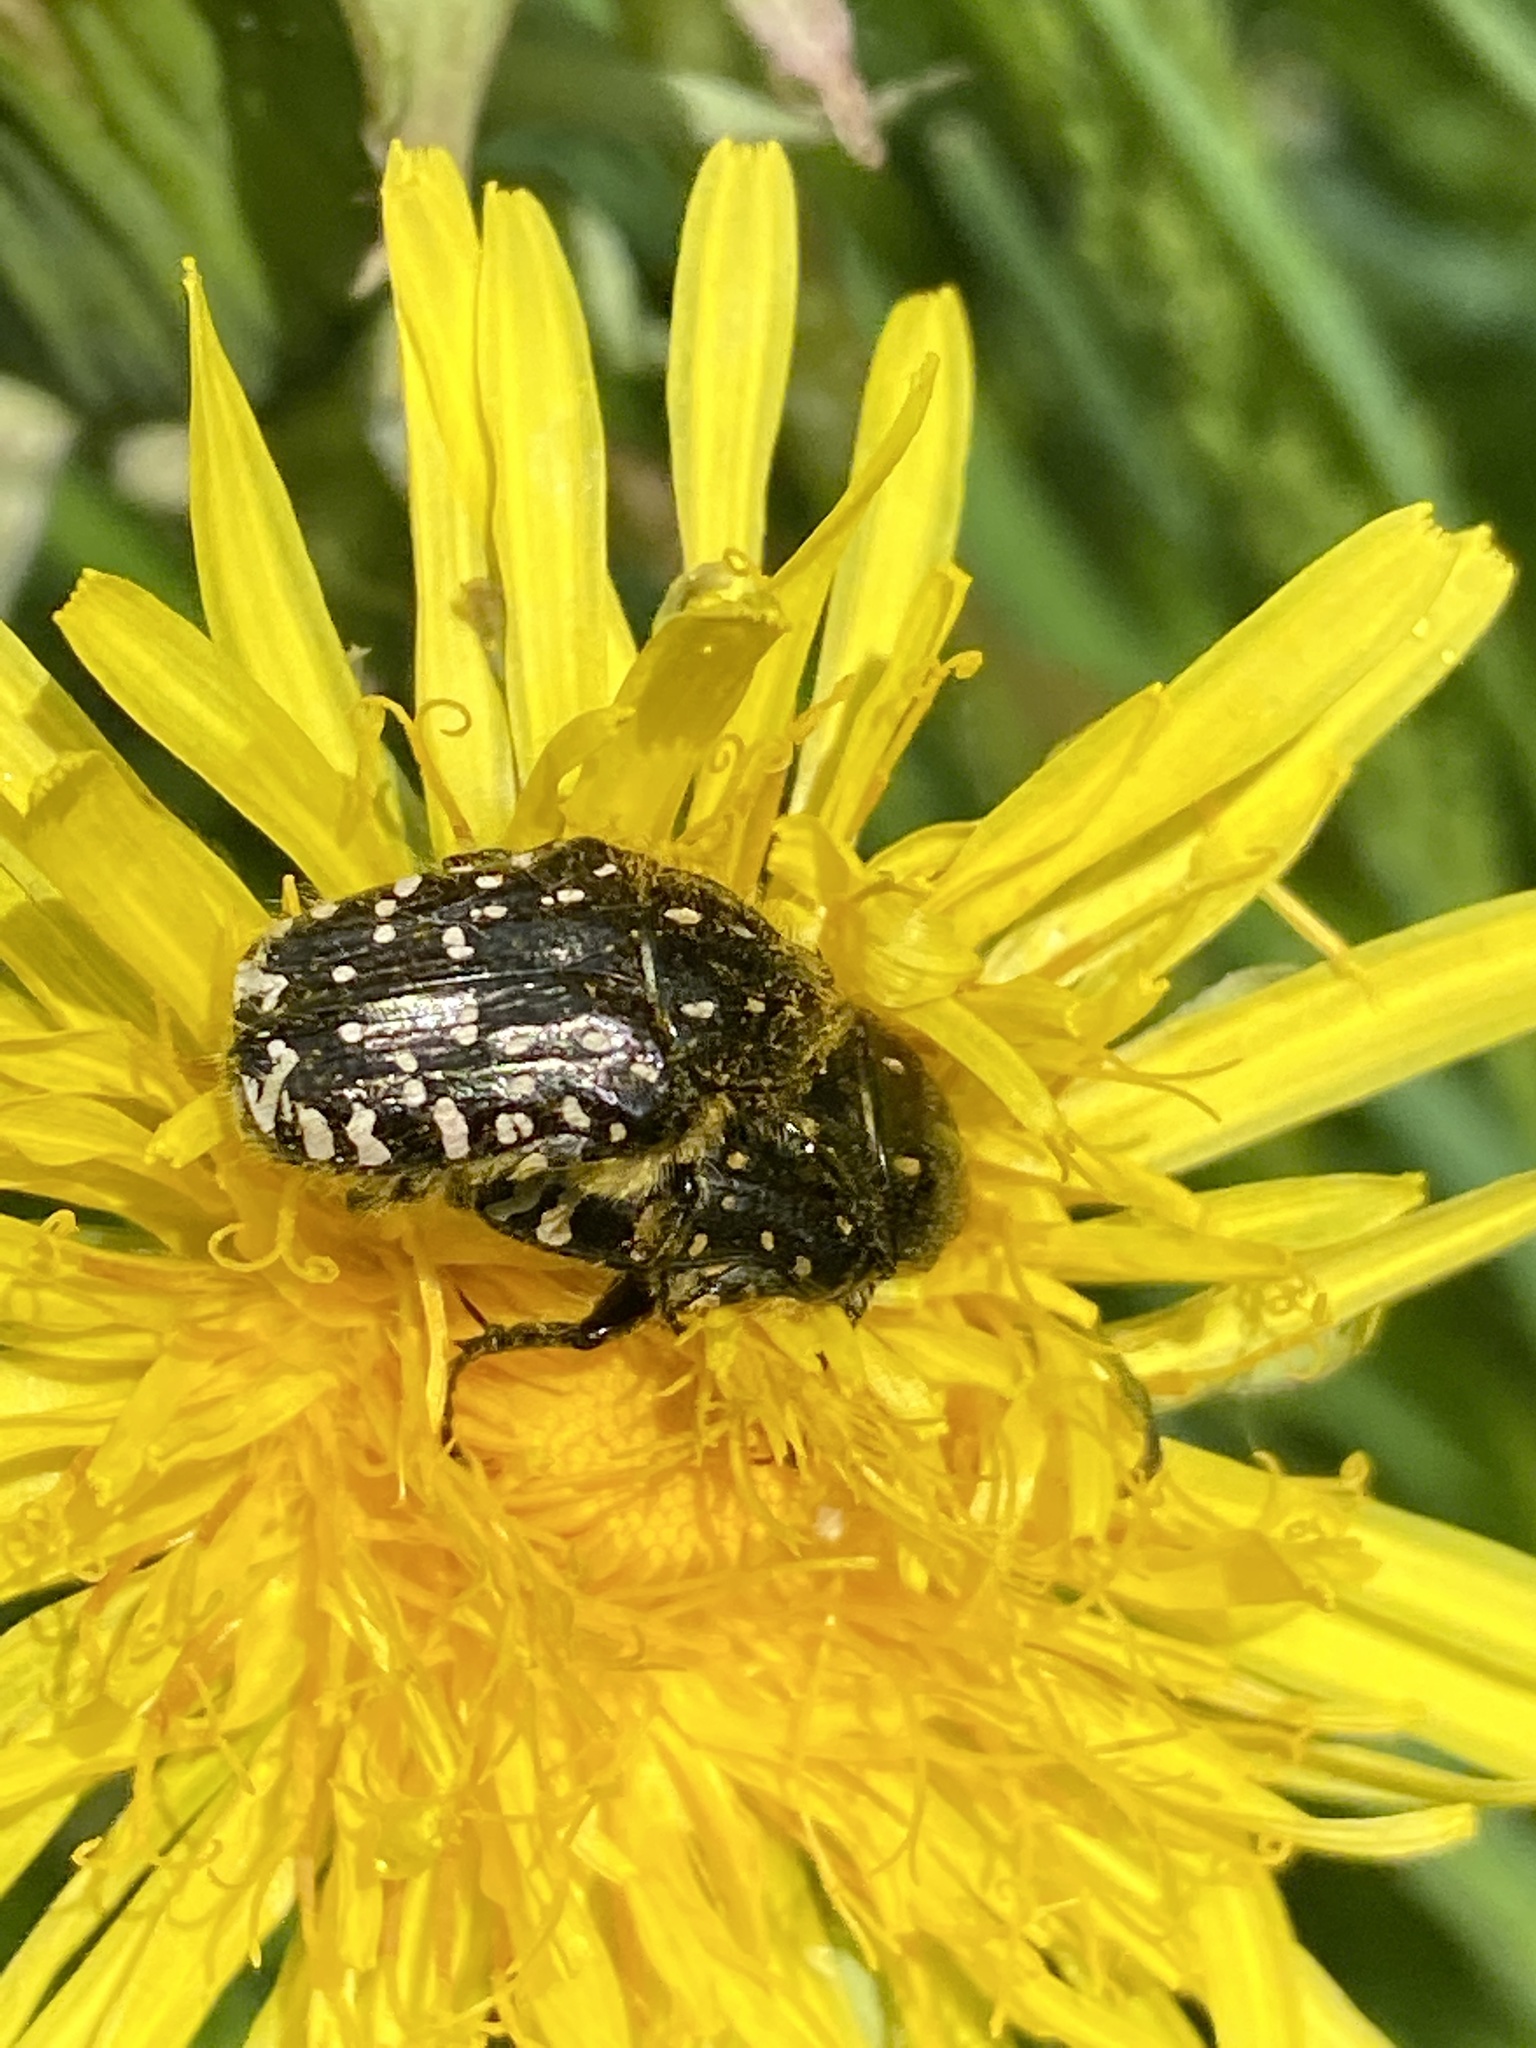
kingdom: Animalia
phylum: Arthropoda
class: Insecta
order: Coleoptera
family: Scarabaeidae
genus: Oxythyrea
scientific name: Oxythyrea funesta
